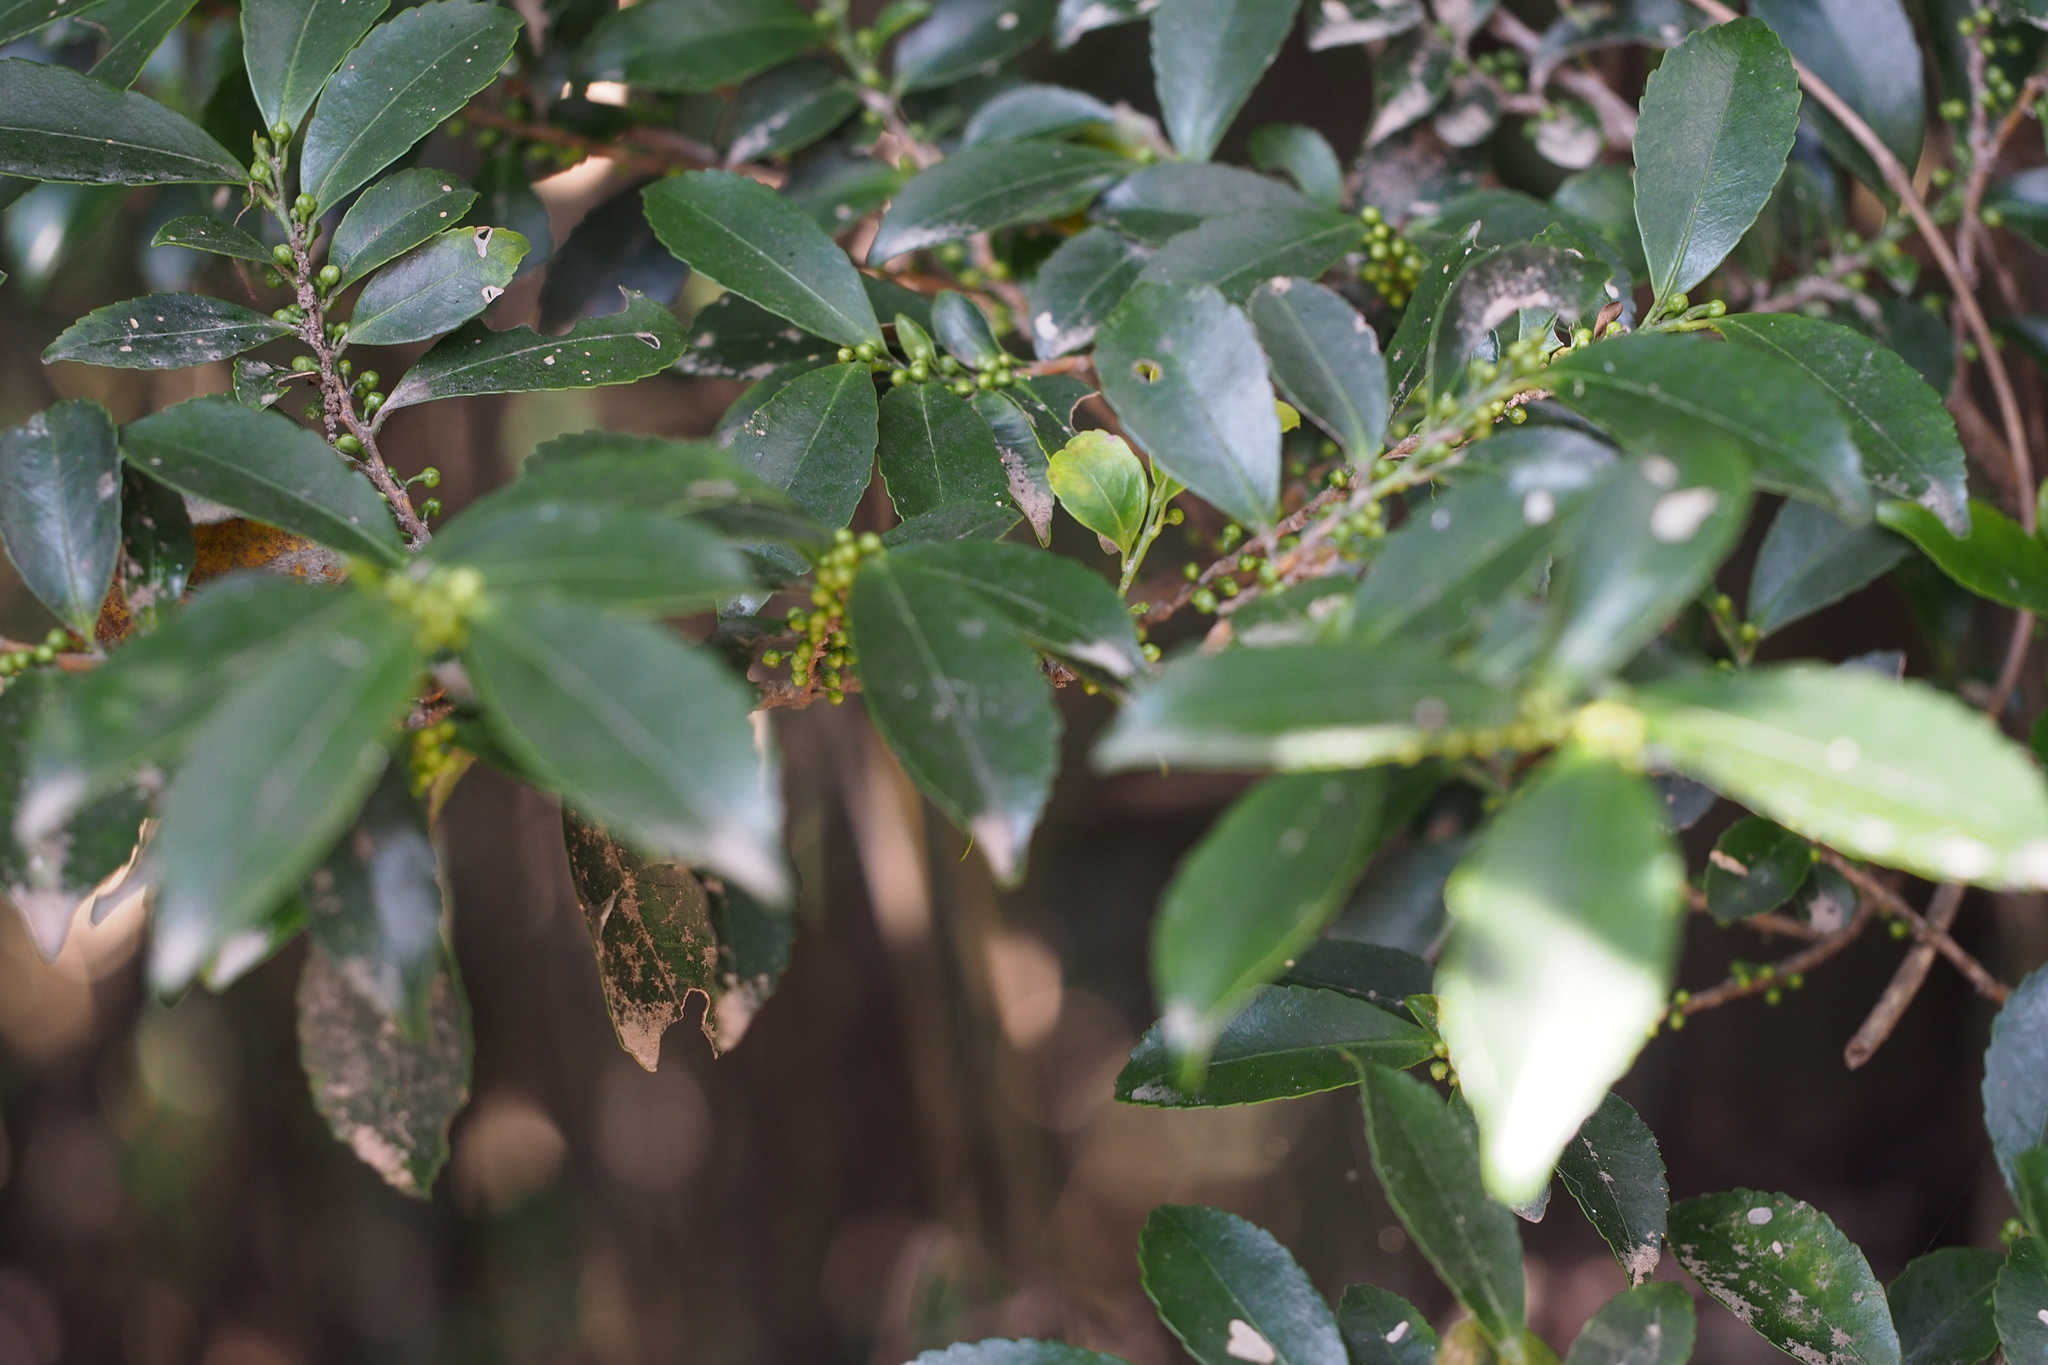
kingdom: Plantae
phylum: Tracheophyta
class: Magnoliopsida
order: Ericales
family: Pentaphylacaceae
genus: Eurya
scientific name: Eurya japonica
